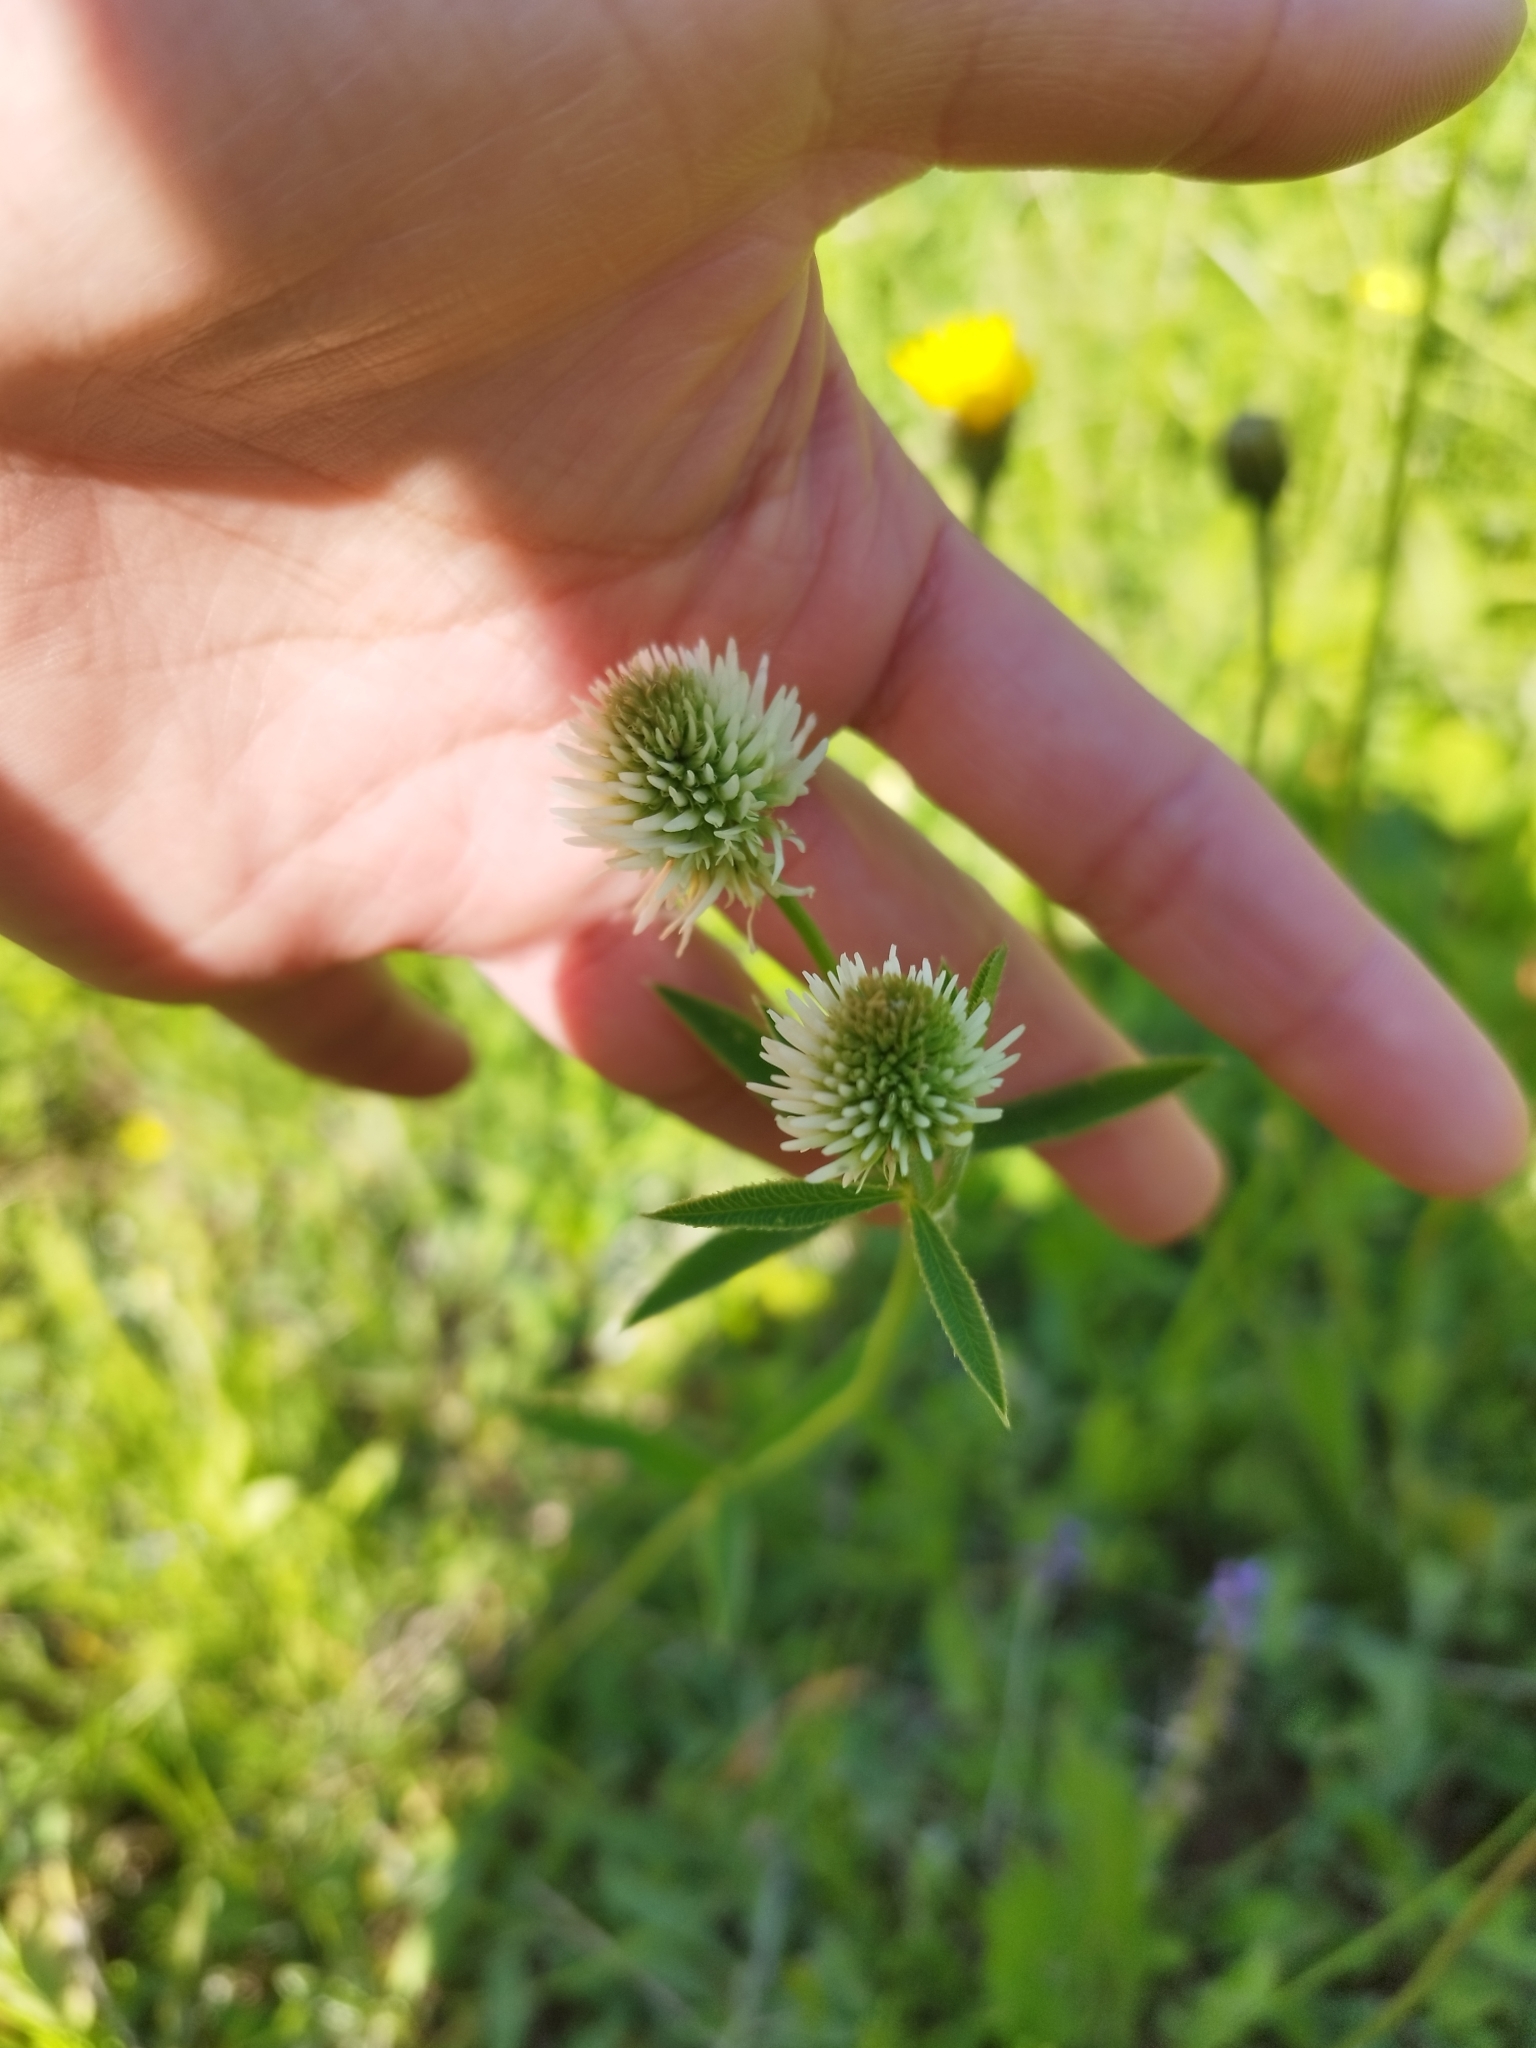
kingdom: Plantae
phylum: Tracheophyta
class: Magnoliopsida
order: Fabales
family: Fabaceae
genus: Trifolium
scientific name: Trifolium montanum
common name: Mountain clover
